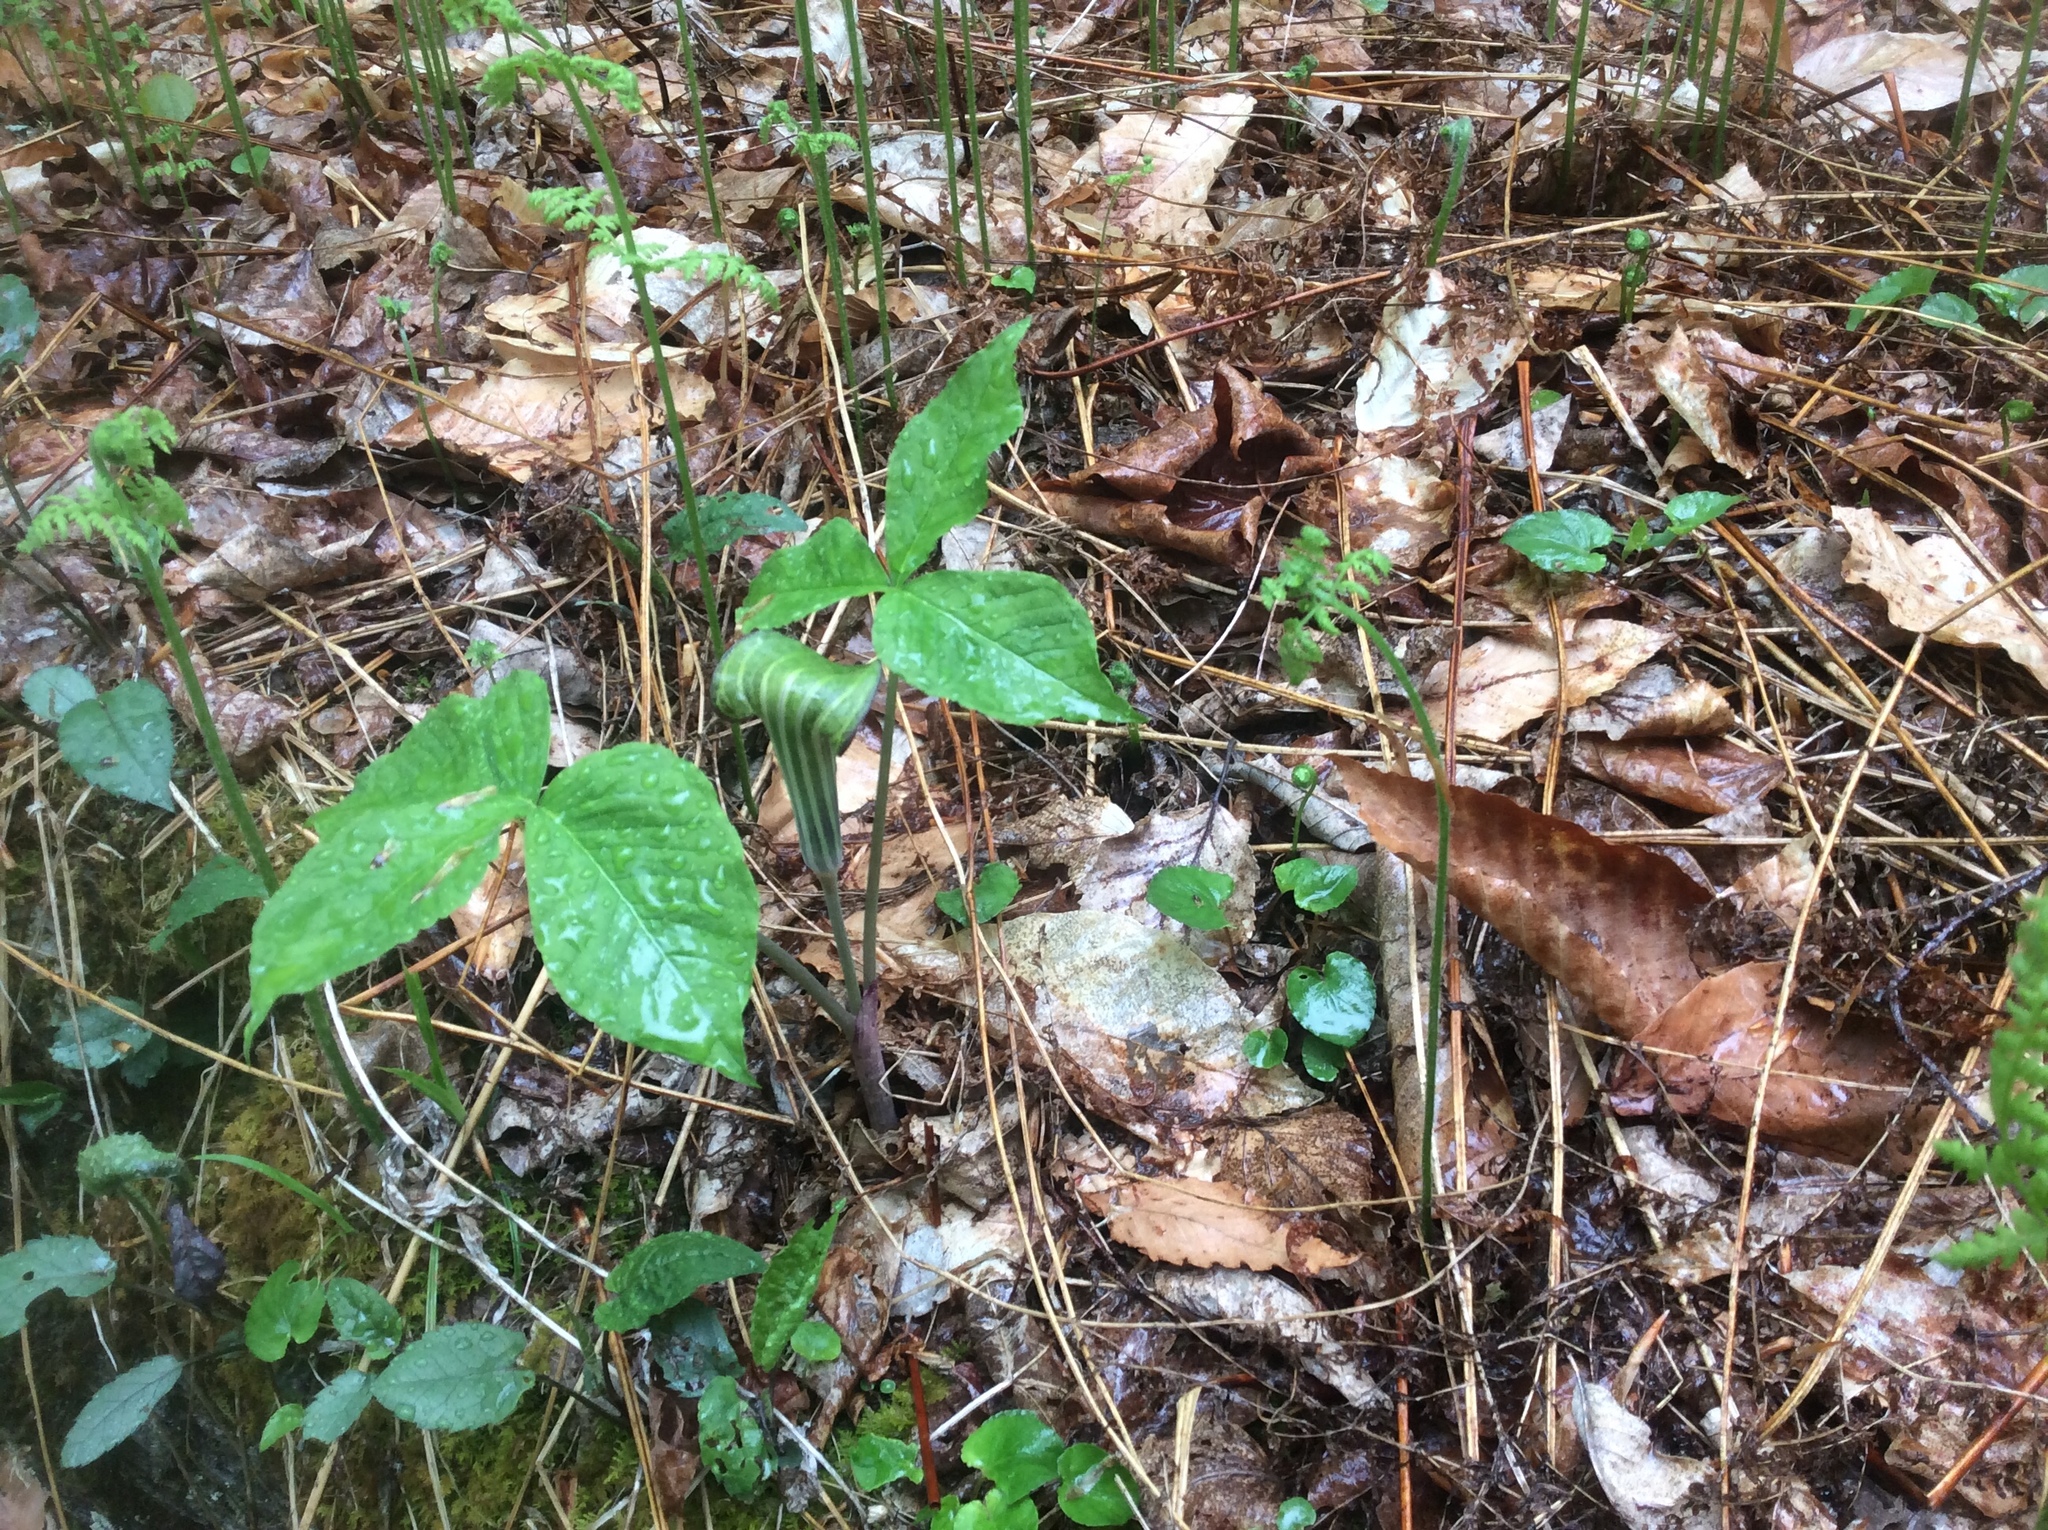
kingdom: Plantae
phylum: Tracheophyta
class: Liliopsida
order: Alismatales
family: Araceae
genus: Arisaema
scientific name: Arisaema triphyllum
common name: Jack-in-the-pulpit
